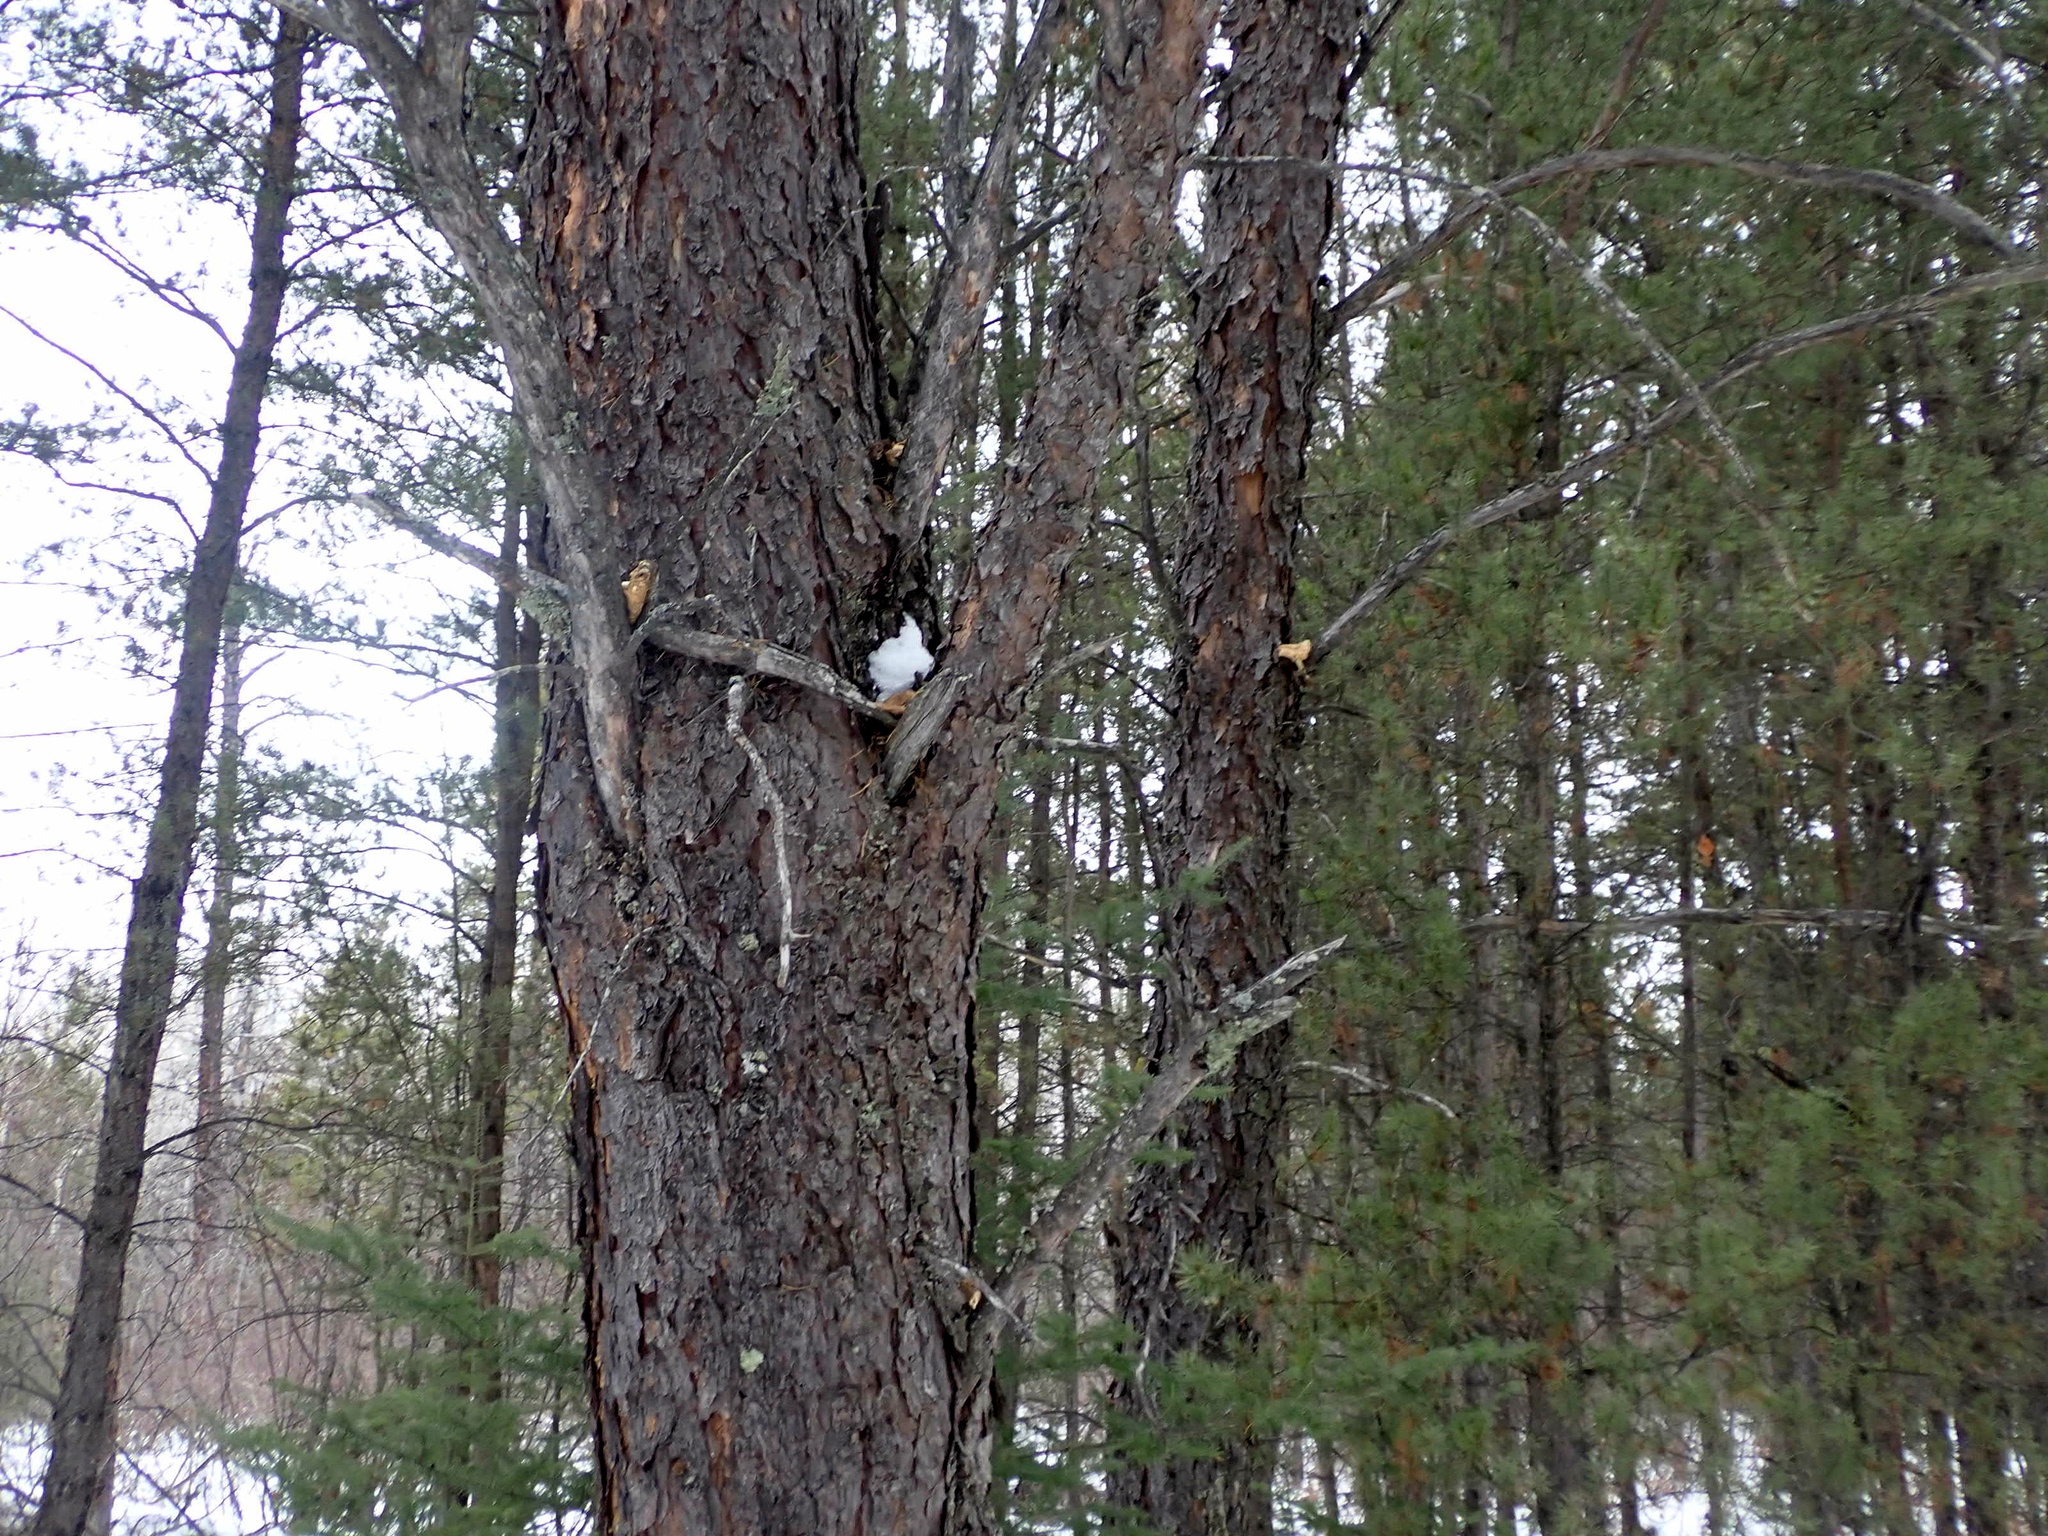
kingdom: Animalia
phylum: Chordata
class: Mammalia
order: Rodentia
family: Sciuridae
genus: Tamiasciurus
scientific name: Tamiasciurus hudsonicus
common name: Red squirrel
